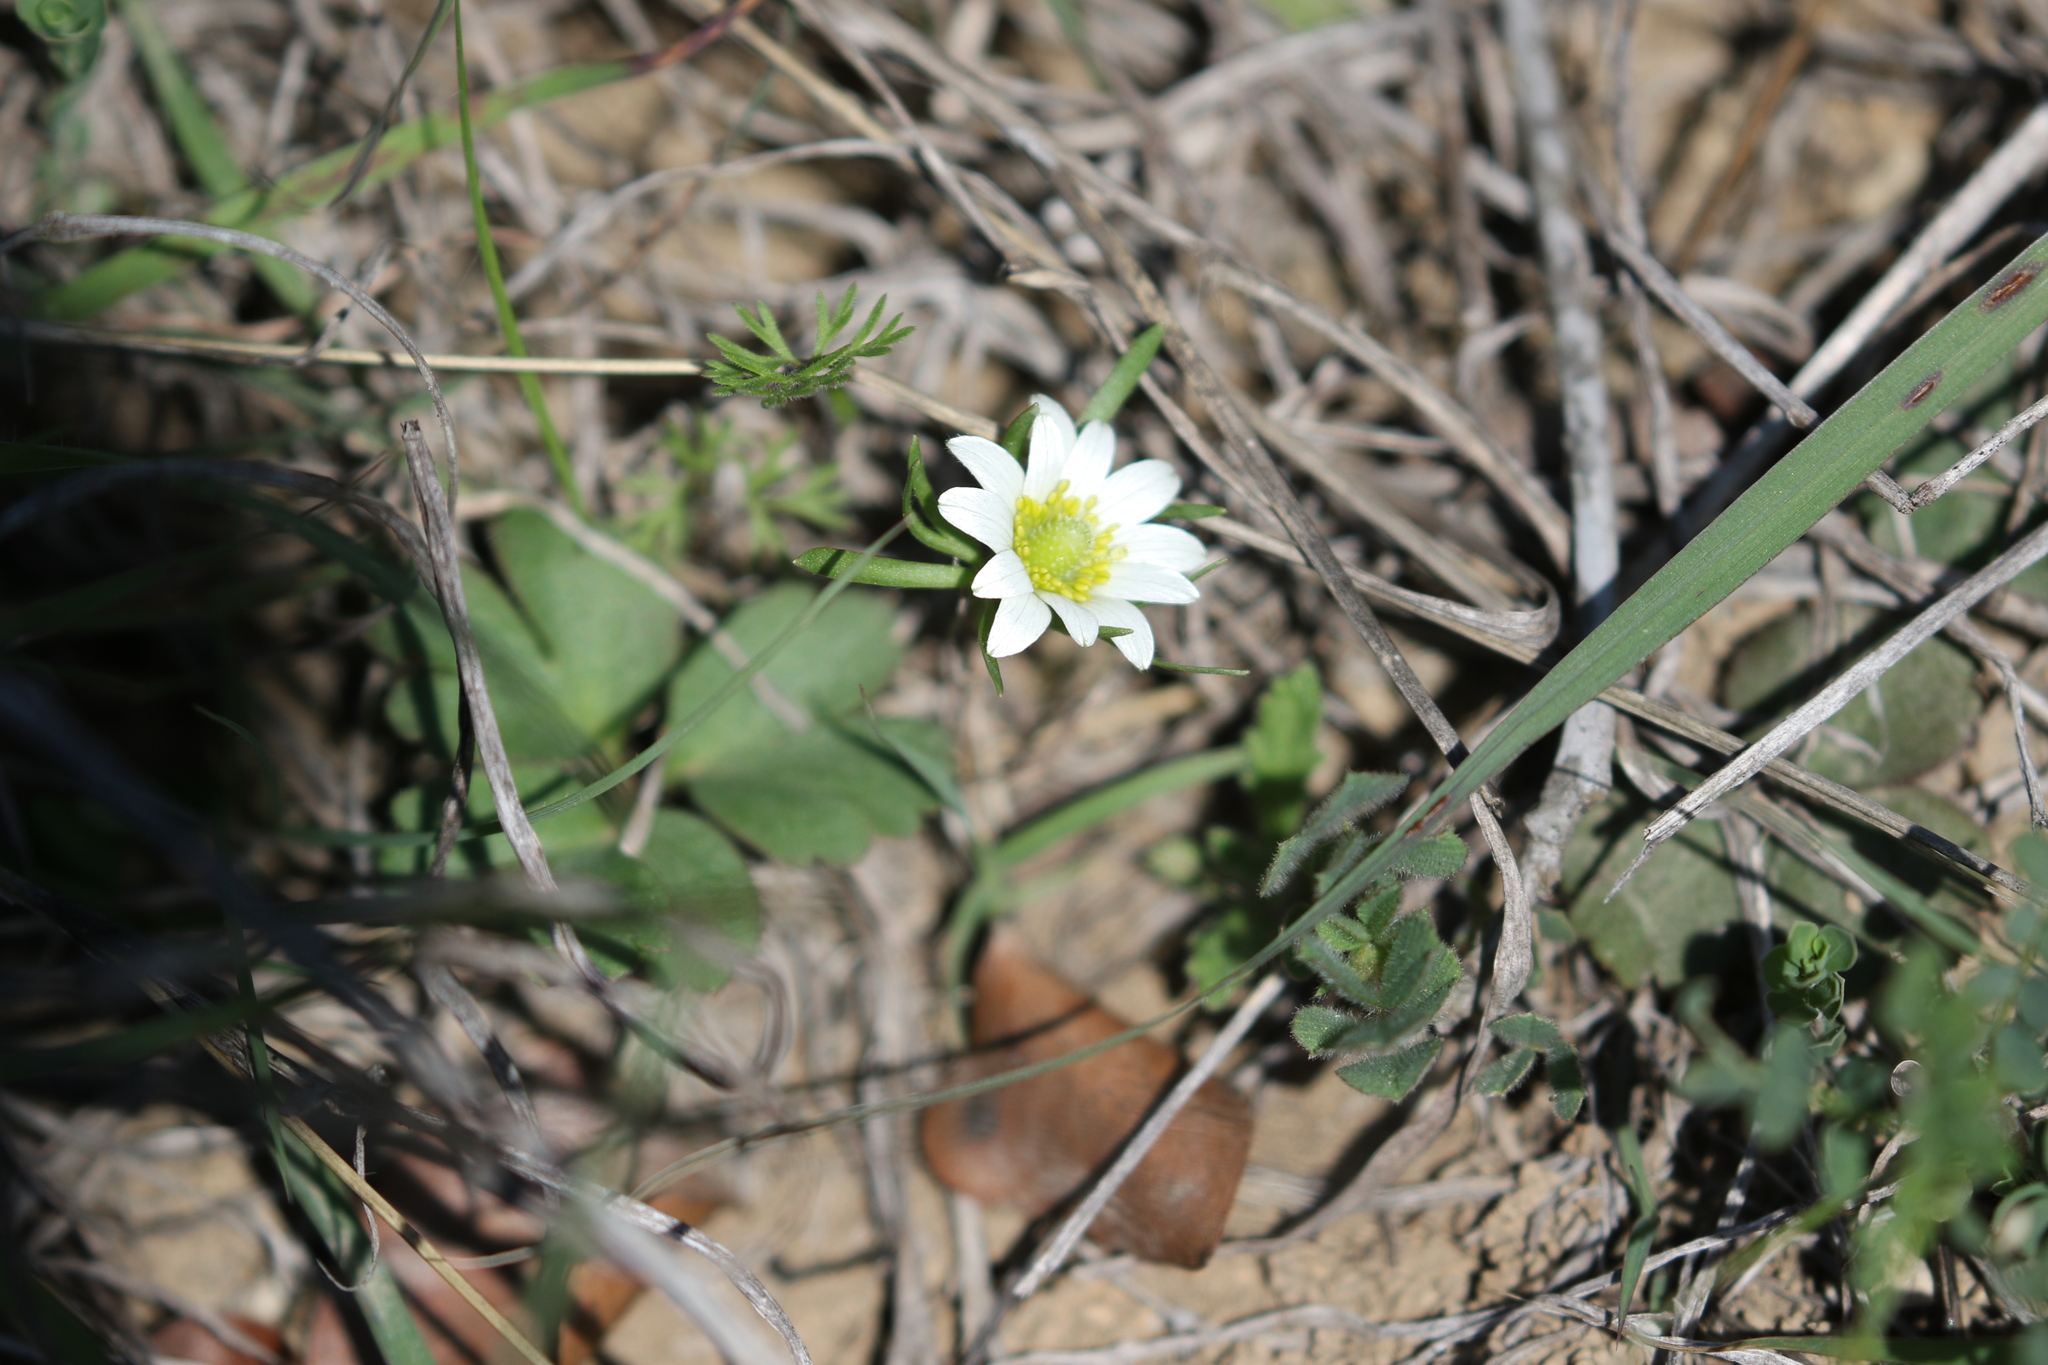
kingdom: Plantae
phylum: Tracheophyta
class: Magnoliopsida
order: Ranunculales
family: Ranunculaceae
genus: Anemone
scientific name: Anemone berlandieri
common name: Ten-petal anemone
